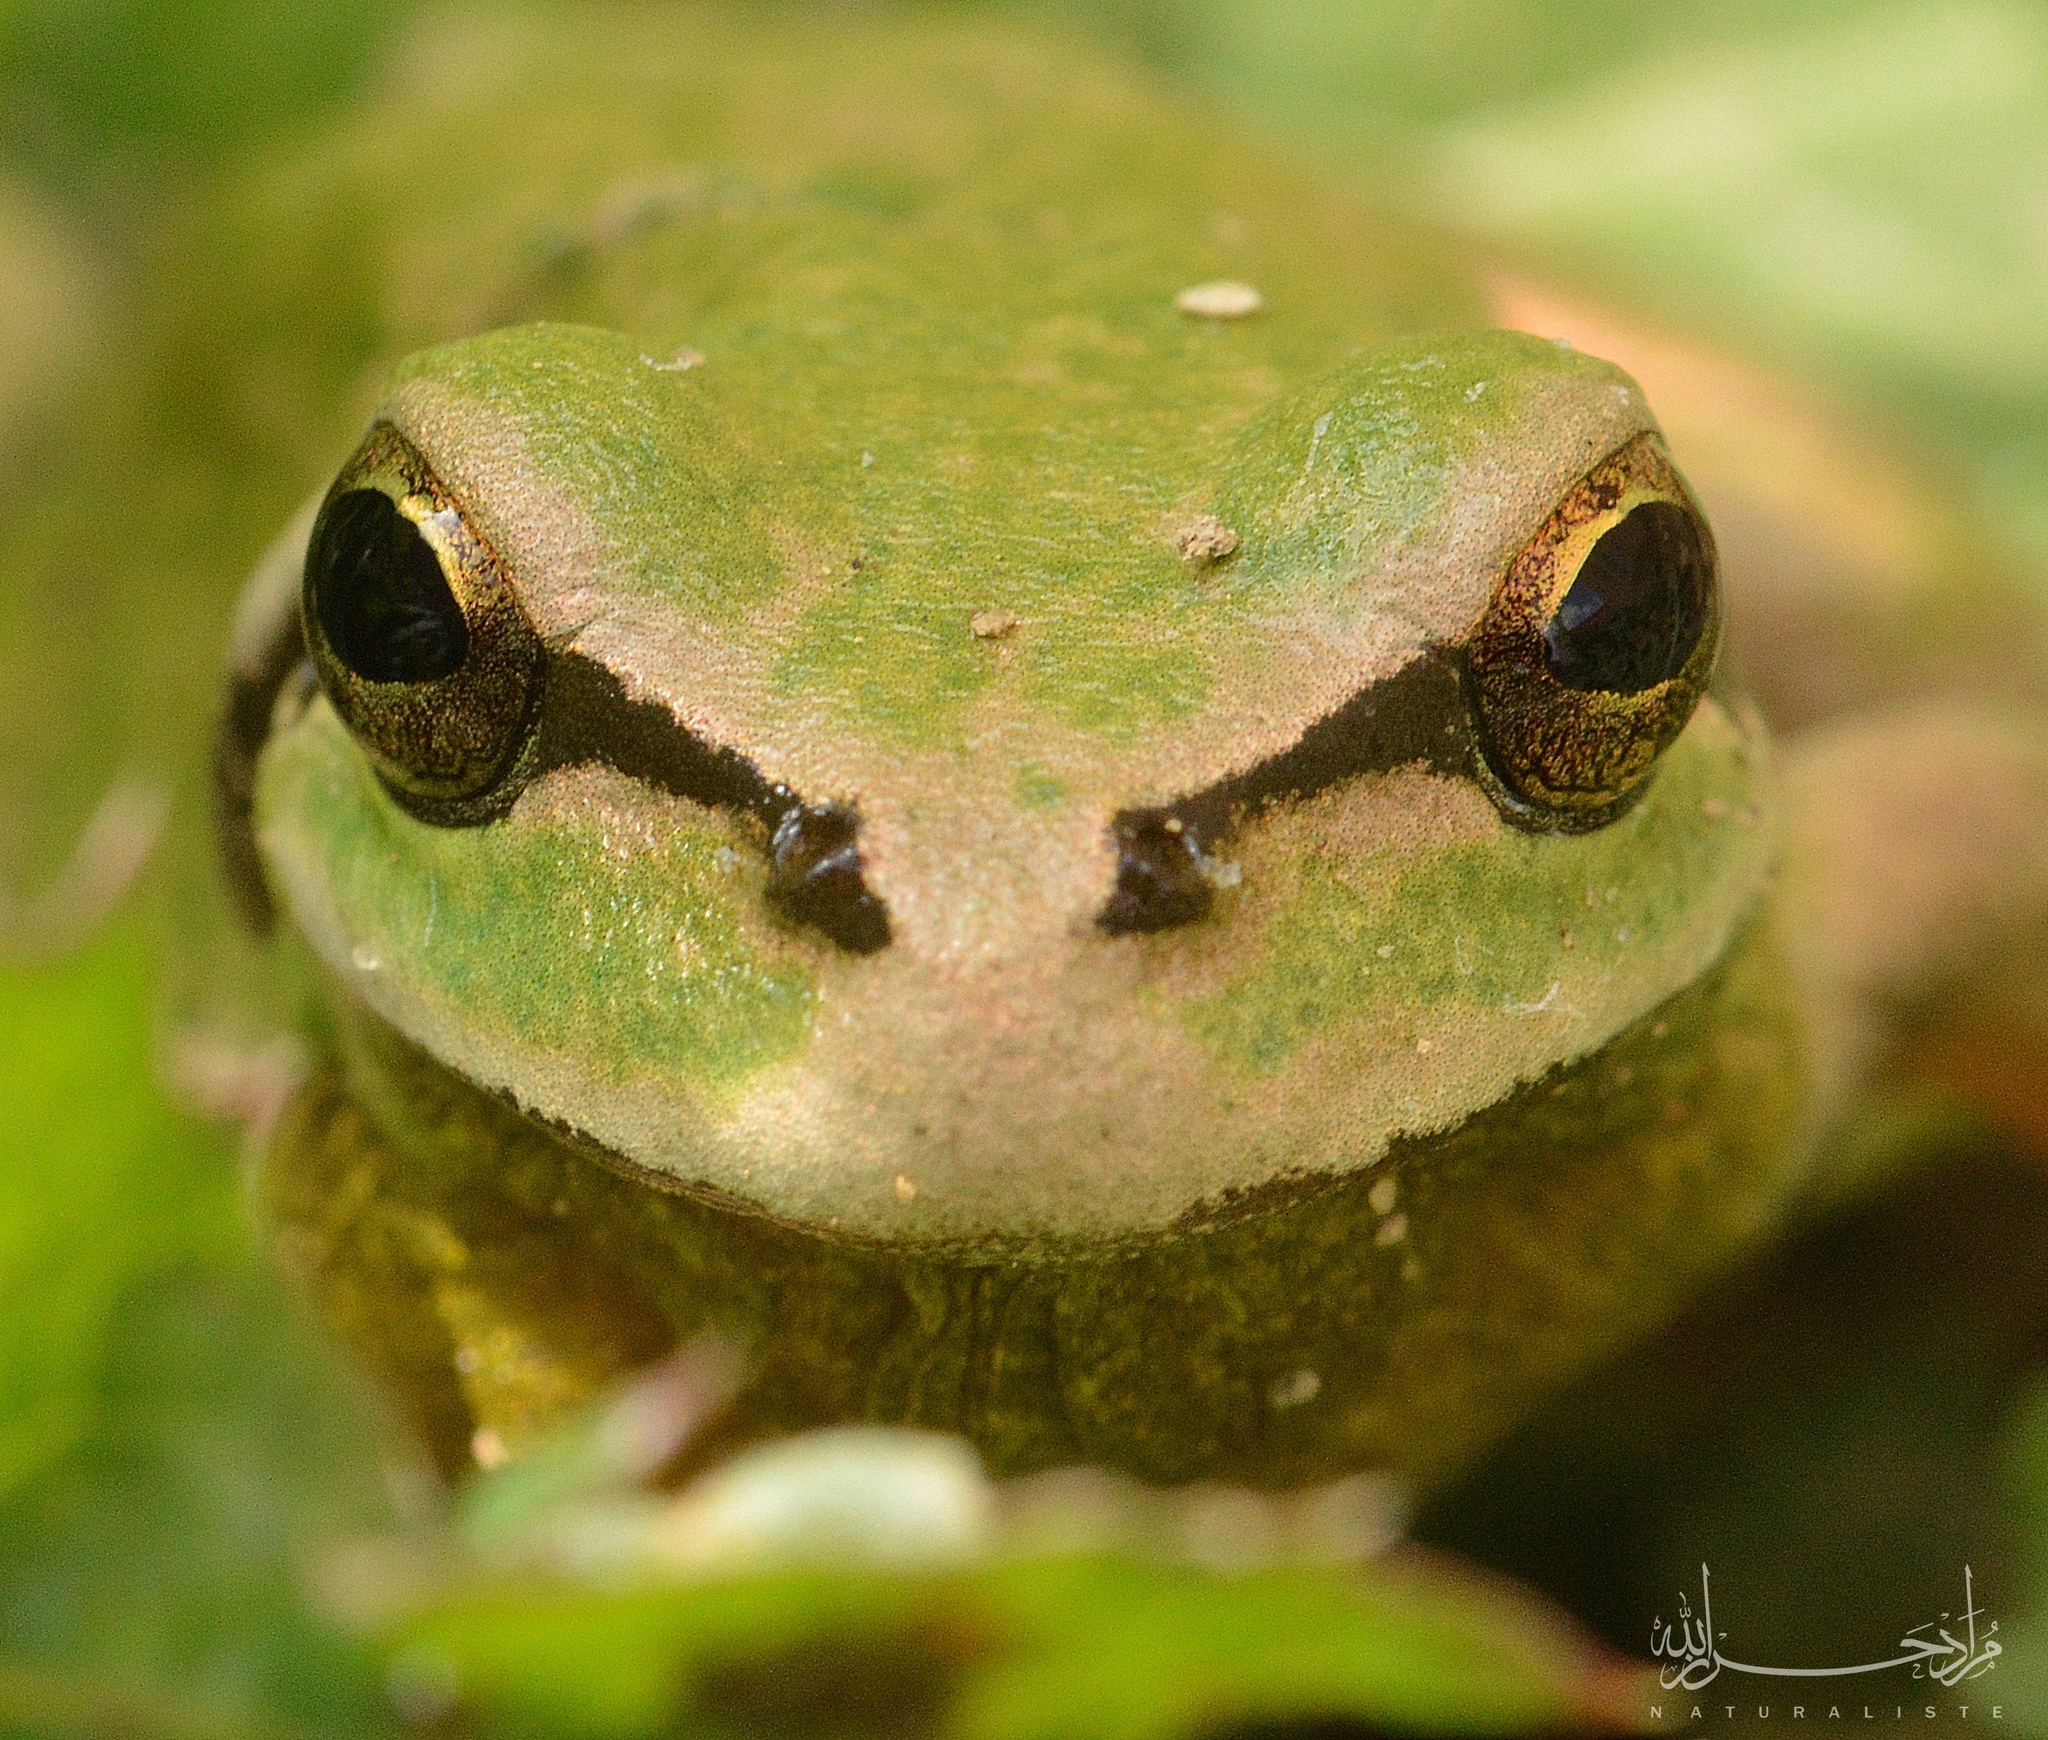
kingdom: Animalia
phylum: Chordata
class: Amphibia
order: Anura
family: Hylidae
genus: Hyla
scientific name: Hyla meridionalis
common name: Stripeless tree frog
